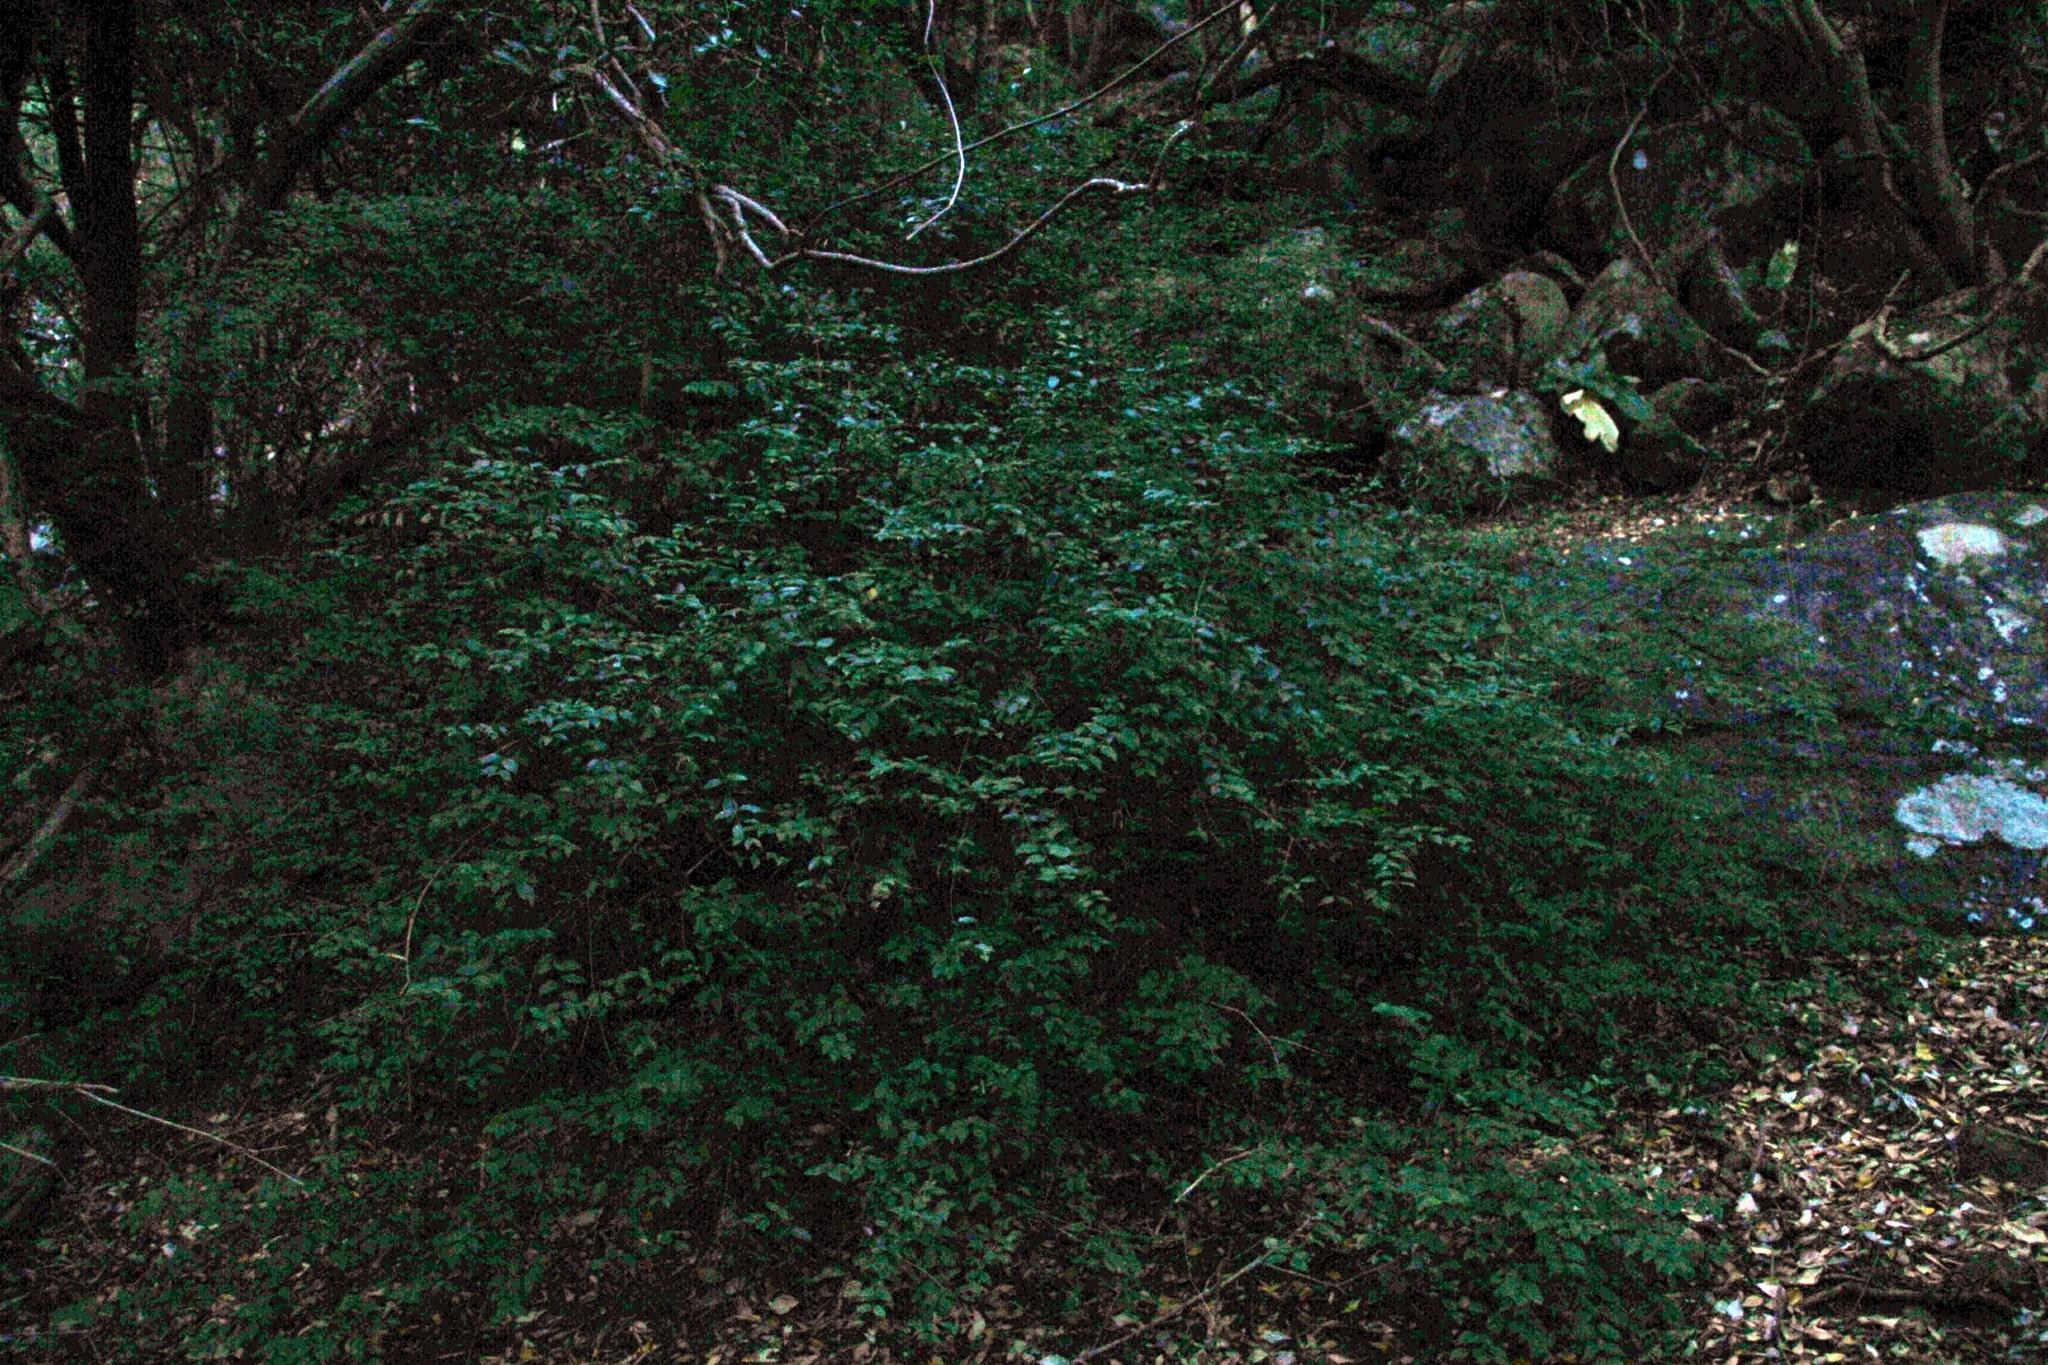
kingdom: Plantae
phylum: Tracheophyta
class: Magnoliopsida
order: Lamiales
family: Stilbaceae
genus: Halleria
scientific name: Halleria lucida
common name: Tree fuschia
